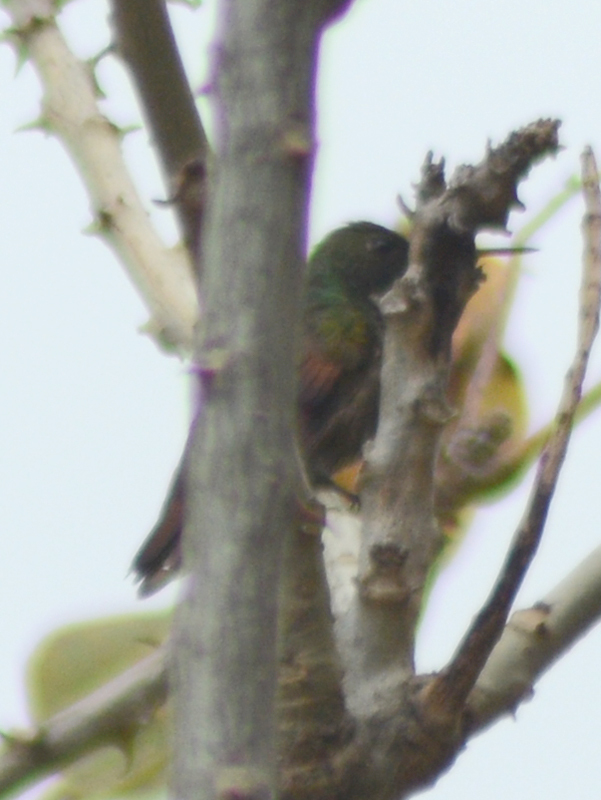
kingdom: Animalia
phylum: Chordata
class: Aves
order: Apodiformes
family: Trochilidae
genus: Saucerottia
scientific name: Saucerottia beryllina
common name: Berylline hummingbird
